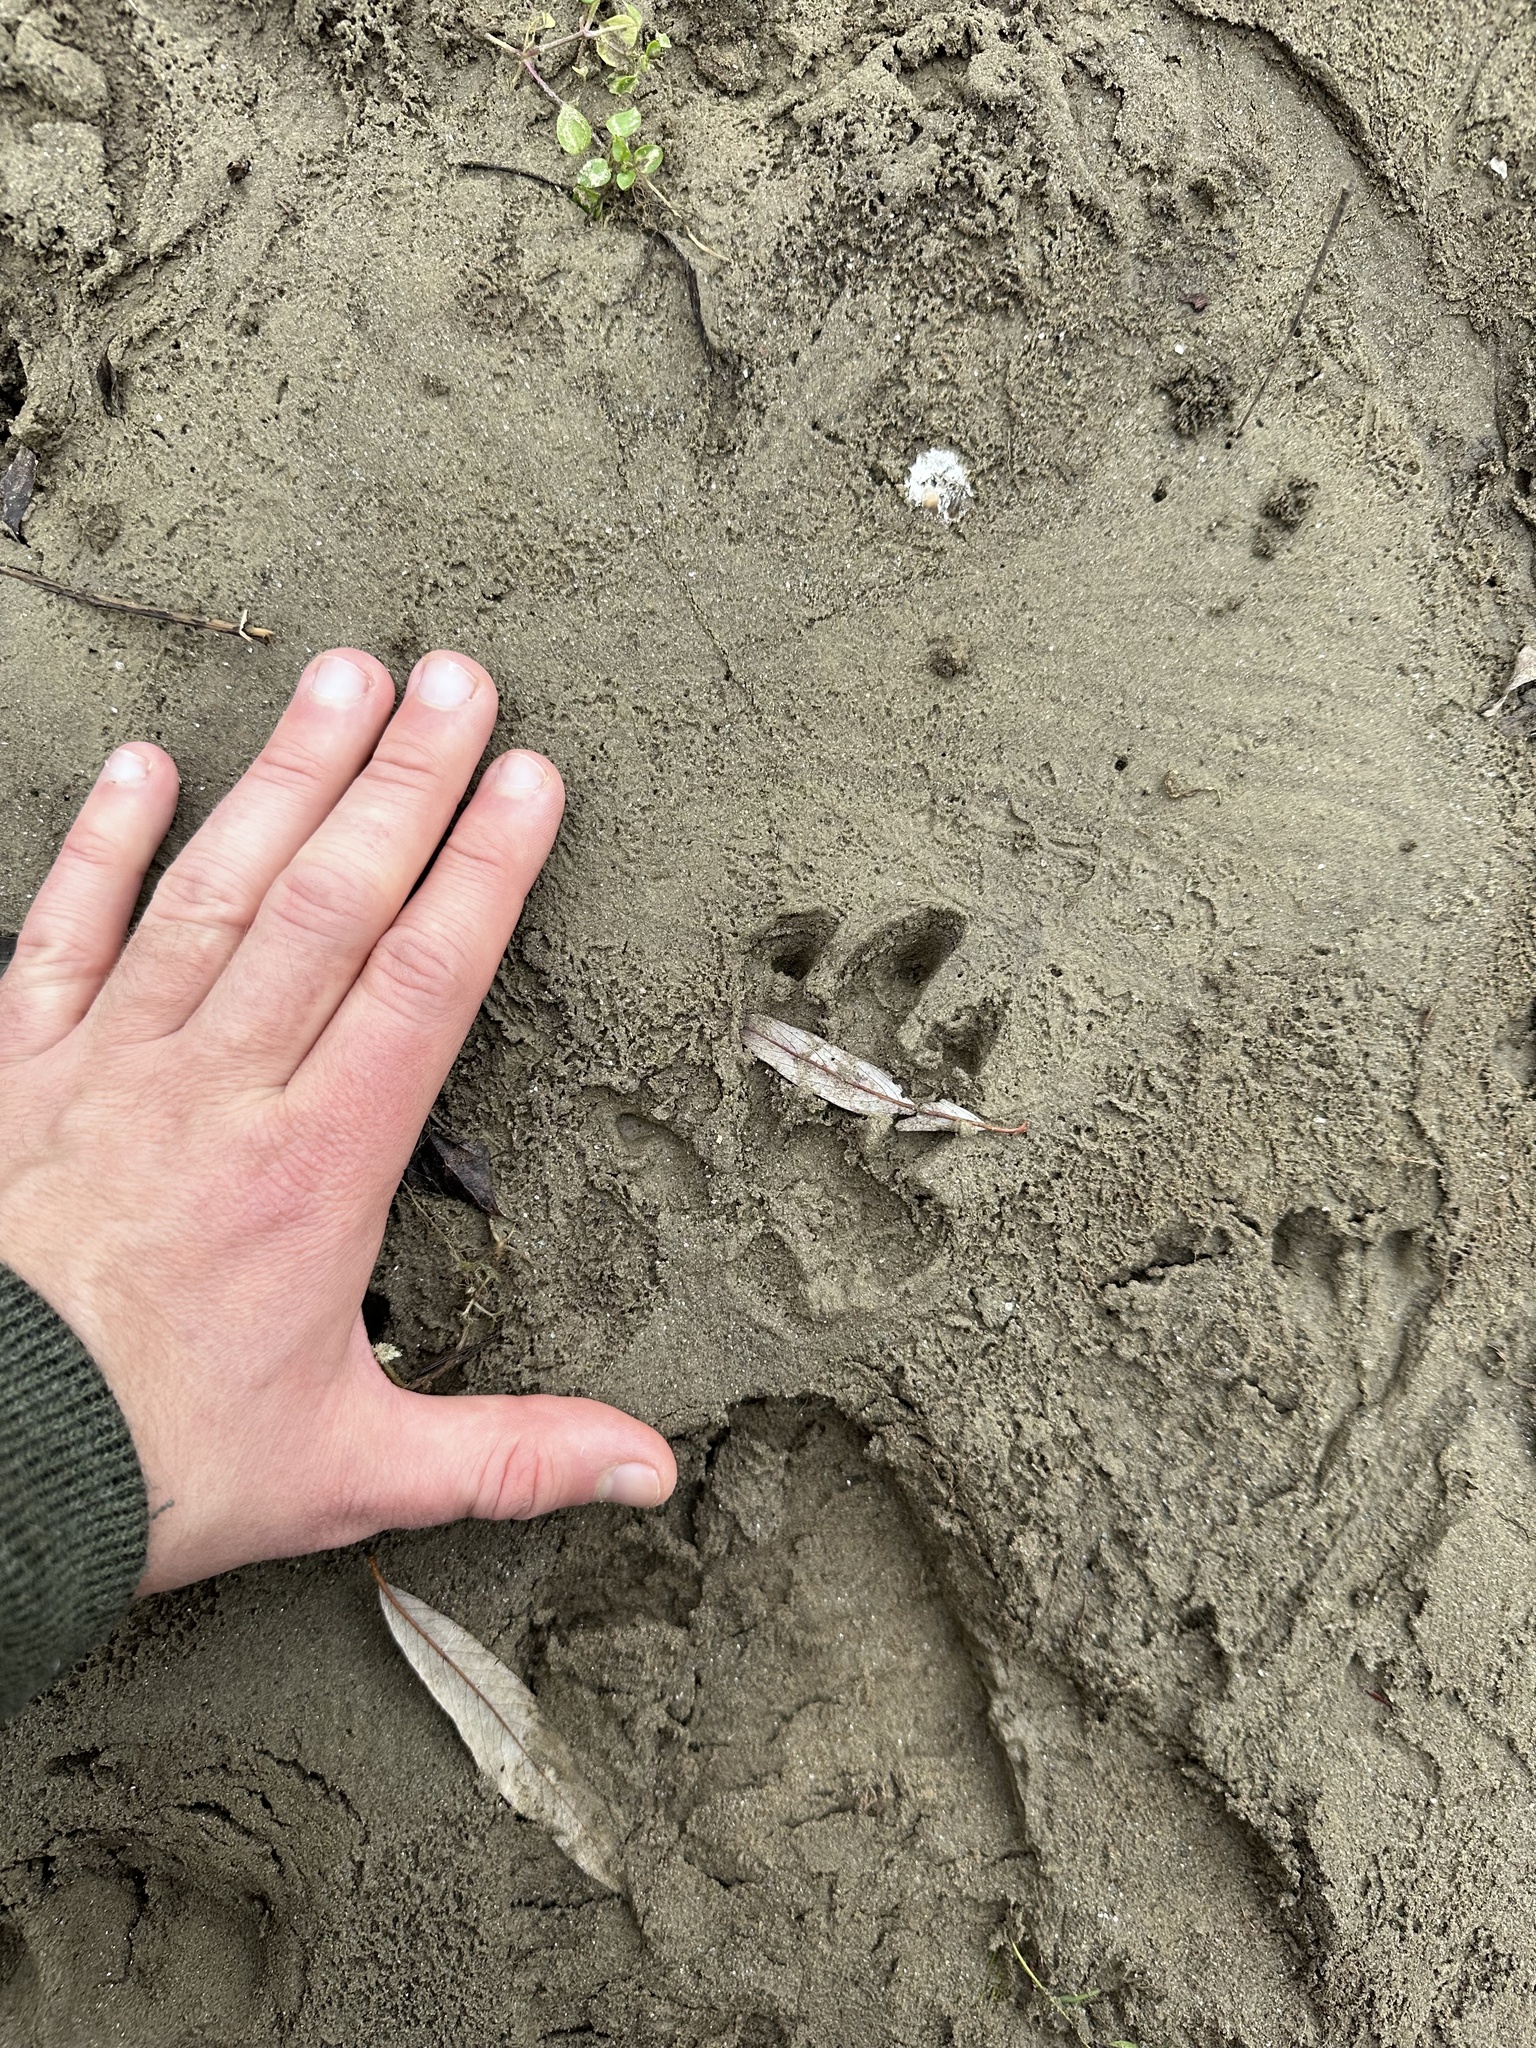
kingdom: Animalia
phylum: Chordata
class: Mammalia
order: Rodentia
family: Castoridae
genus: Castor
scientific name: Castor fiber
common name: Eurasian beaver
